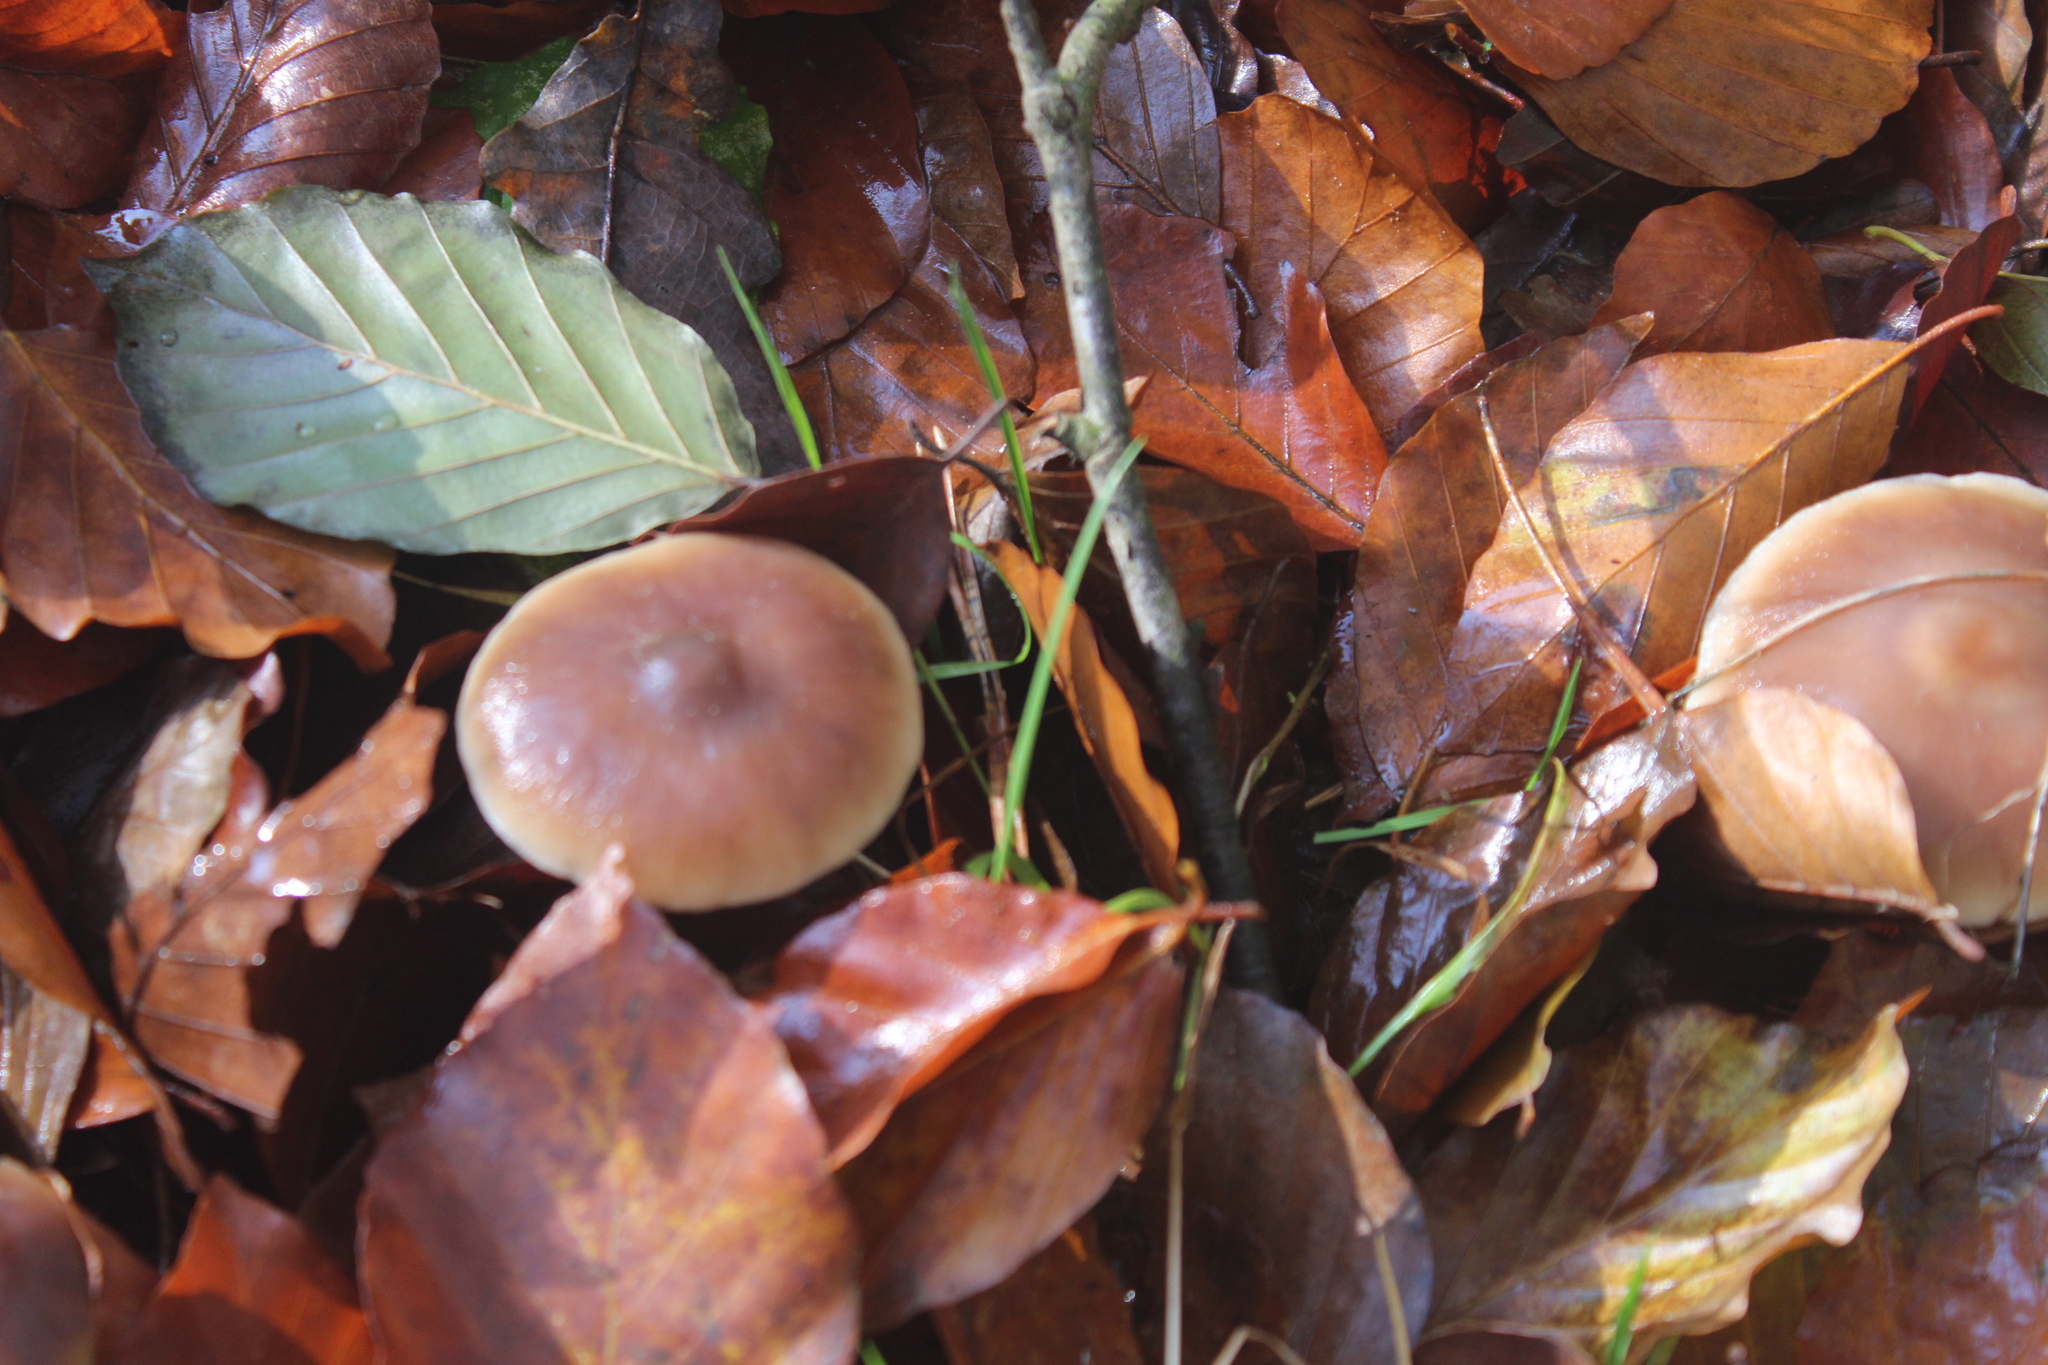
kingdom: Fungi
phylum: Basidiomycota
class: Agaricomycetes
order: Agaricales
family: Omphalotaceae
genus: Rhodocollybia
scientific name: Rhodocollybia butyracea
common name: Butter cap
